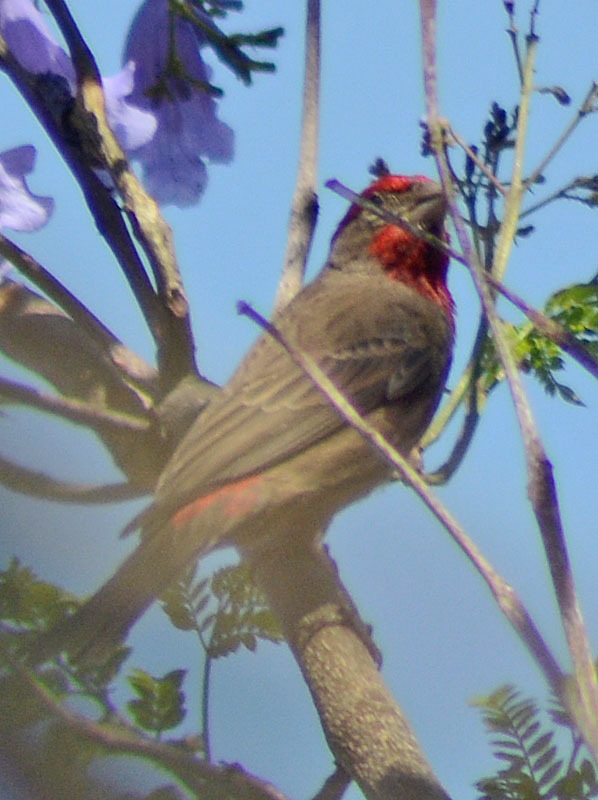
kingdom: Animalia
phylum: Chordata
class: Aves
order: Passeriformes
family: Fringillidae
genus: Haemorhous
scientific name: Haemorhous mexicanus
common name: House finch
